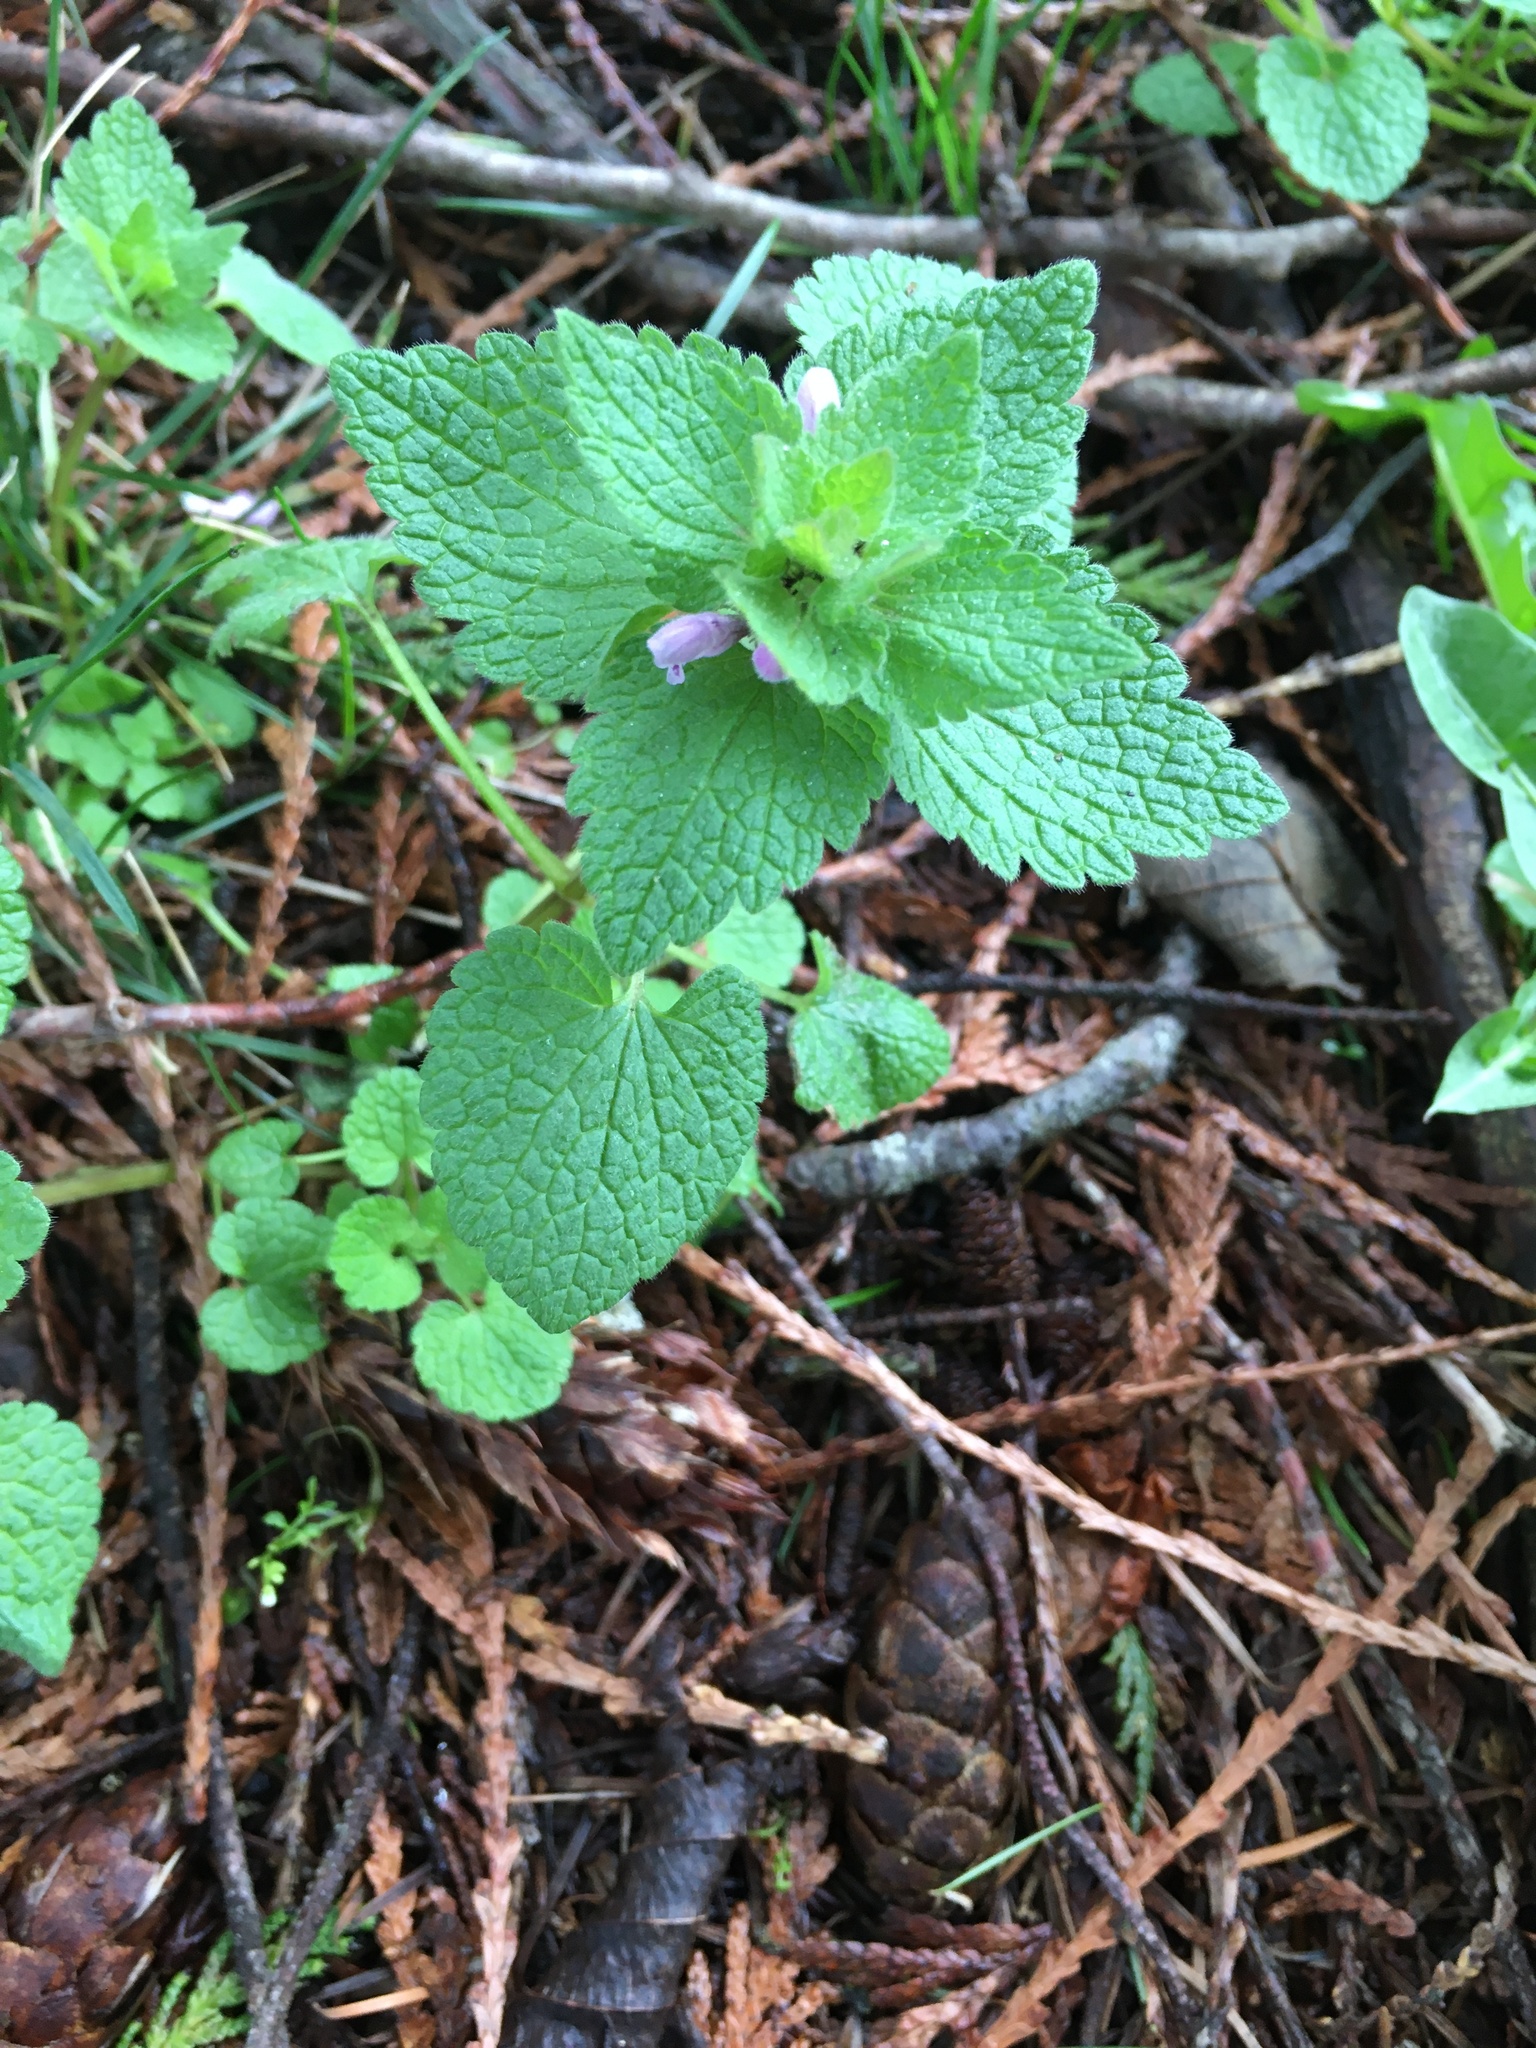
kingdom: Plantae
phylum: Tracheophyta
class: Magnoliopsida
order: Lamiales
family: Lamiaceae
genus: Lamium
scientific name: Lamium purpureum
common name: Red dead-nettle
